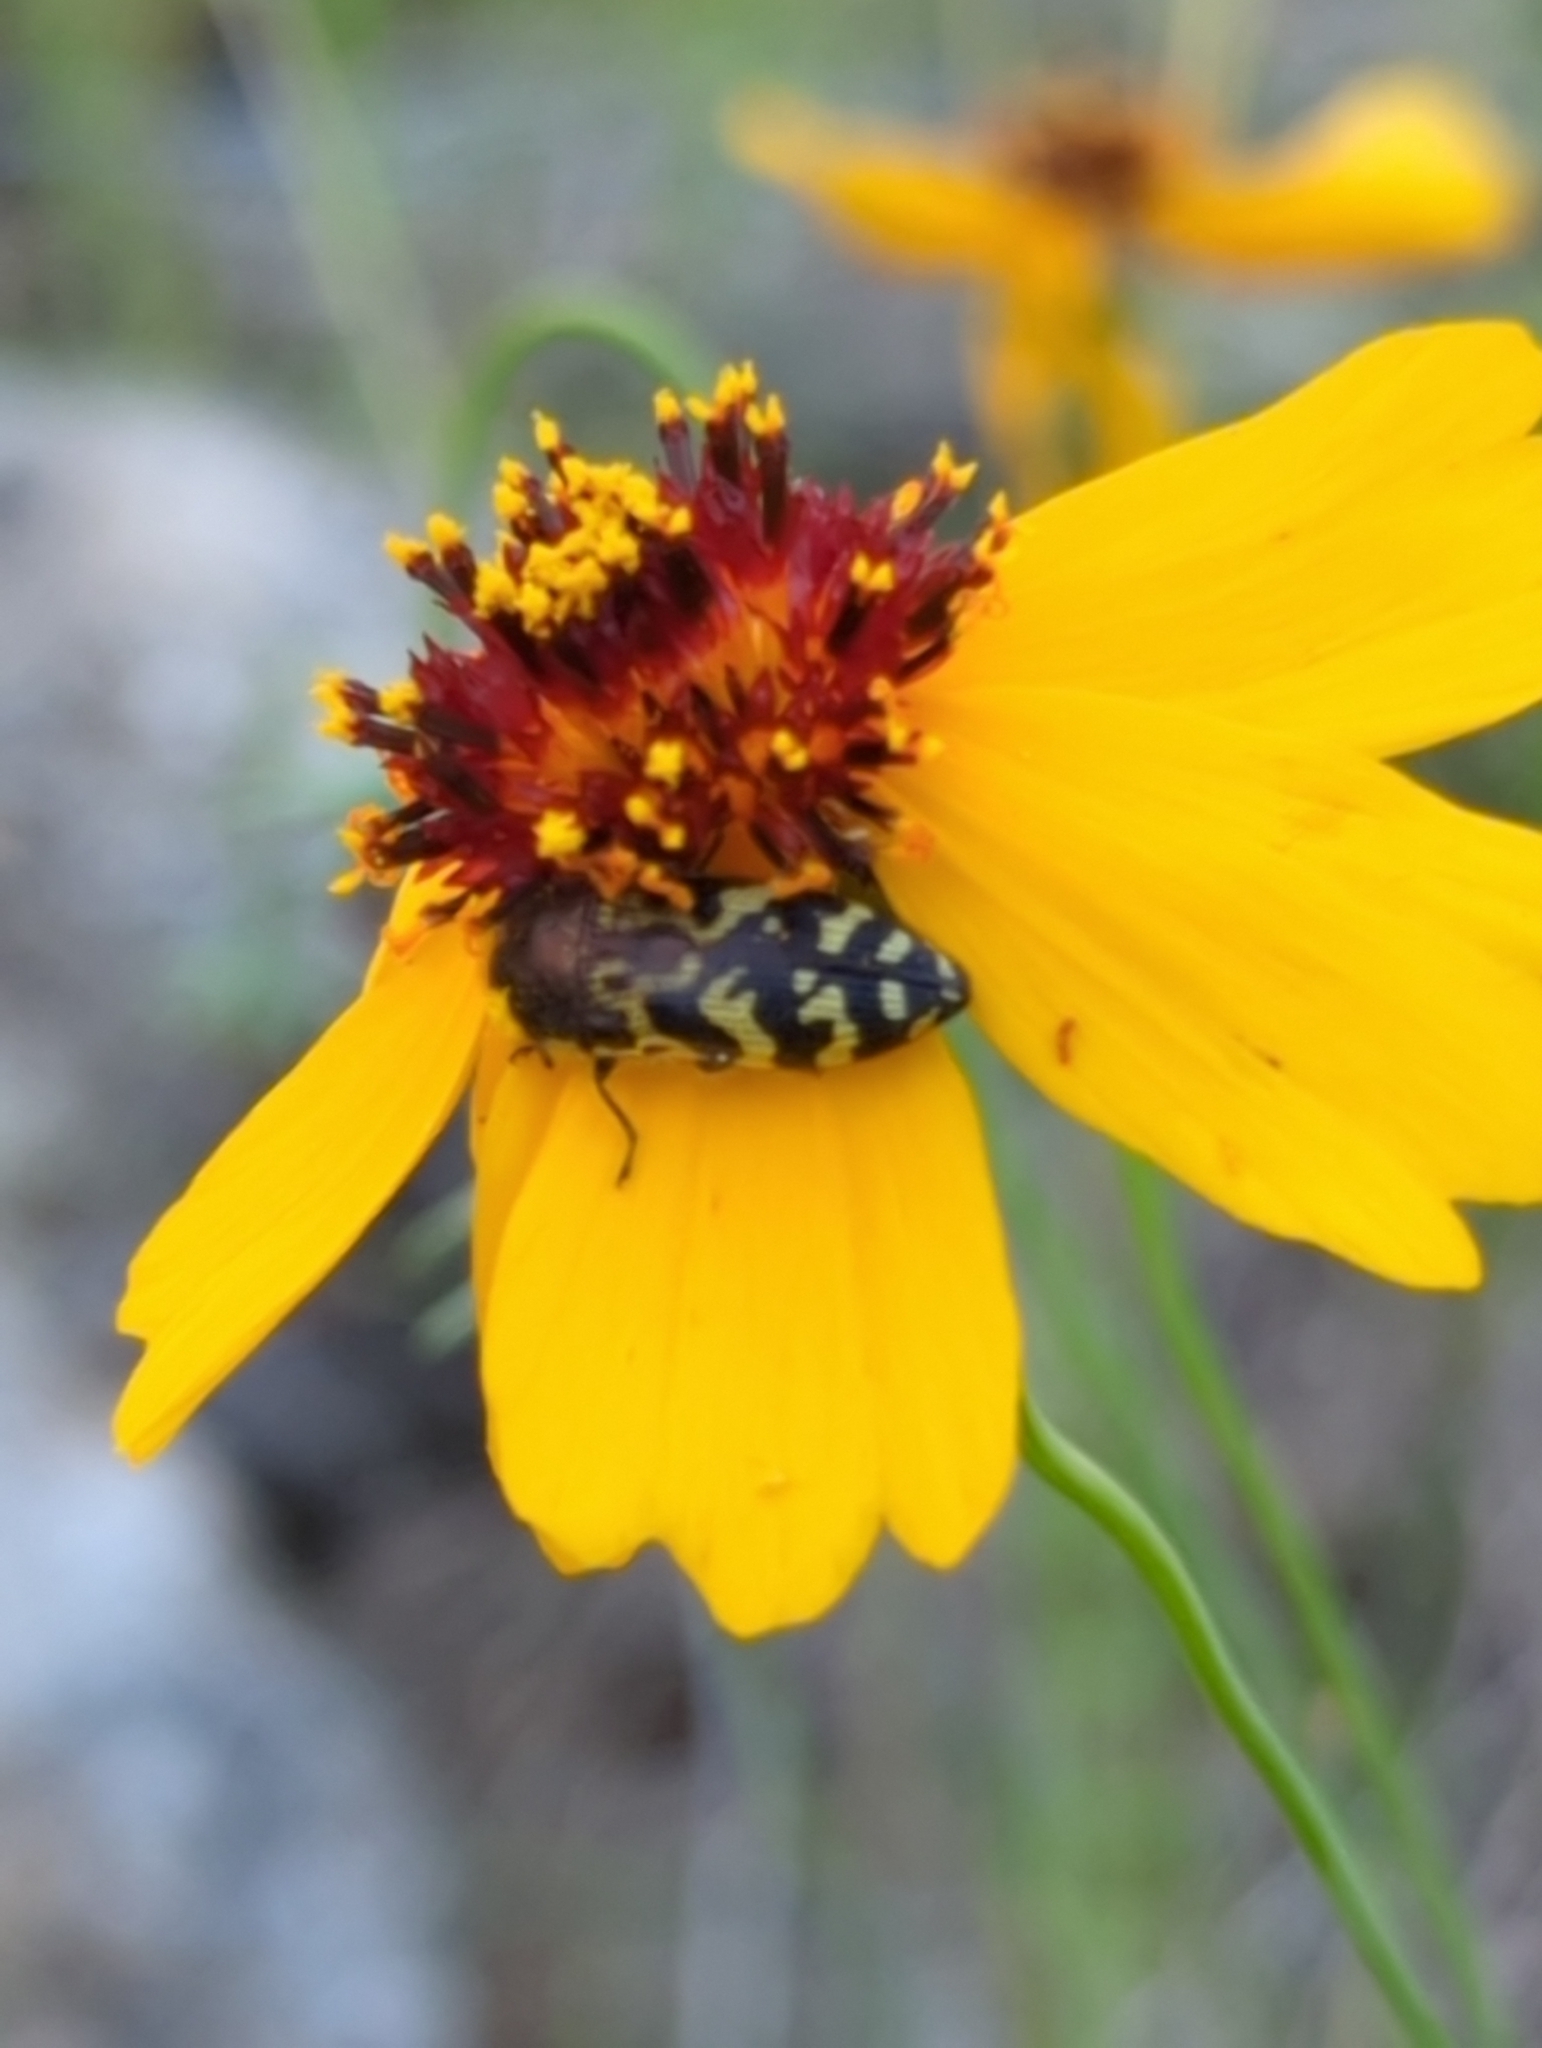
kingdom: Animalia
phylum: Arthropoda
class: Insecta
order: Coleoptera
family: Buprestidae
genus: Acmaeodera
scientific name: Acmaeodera mixta
